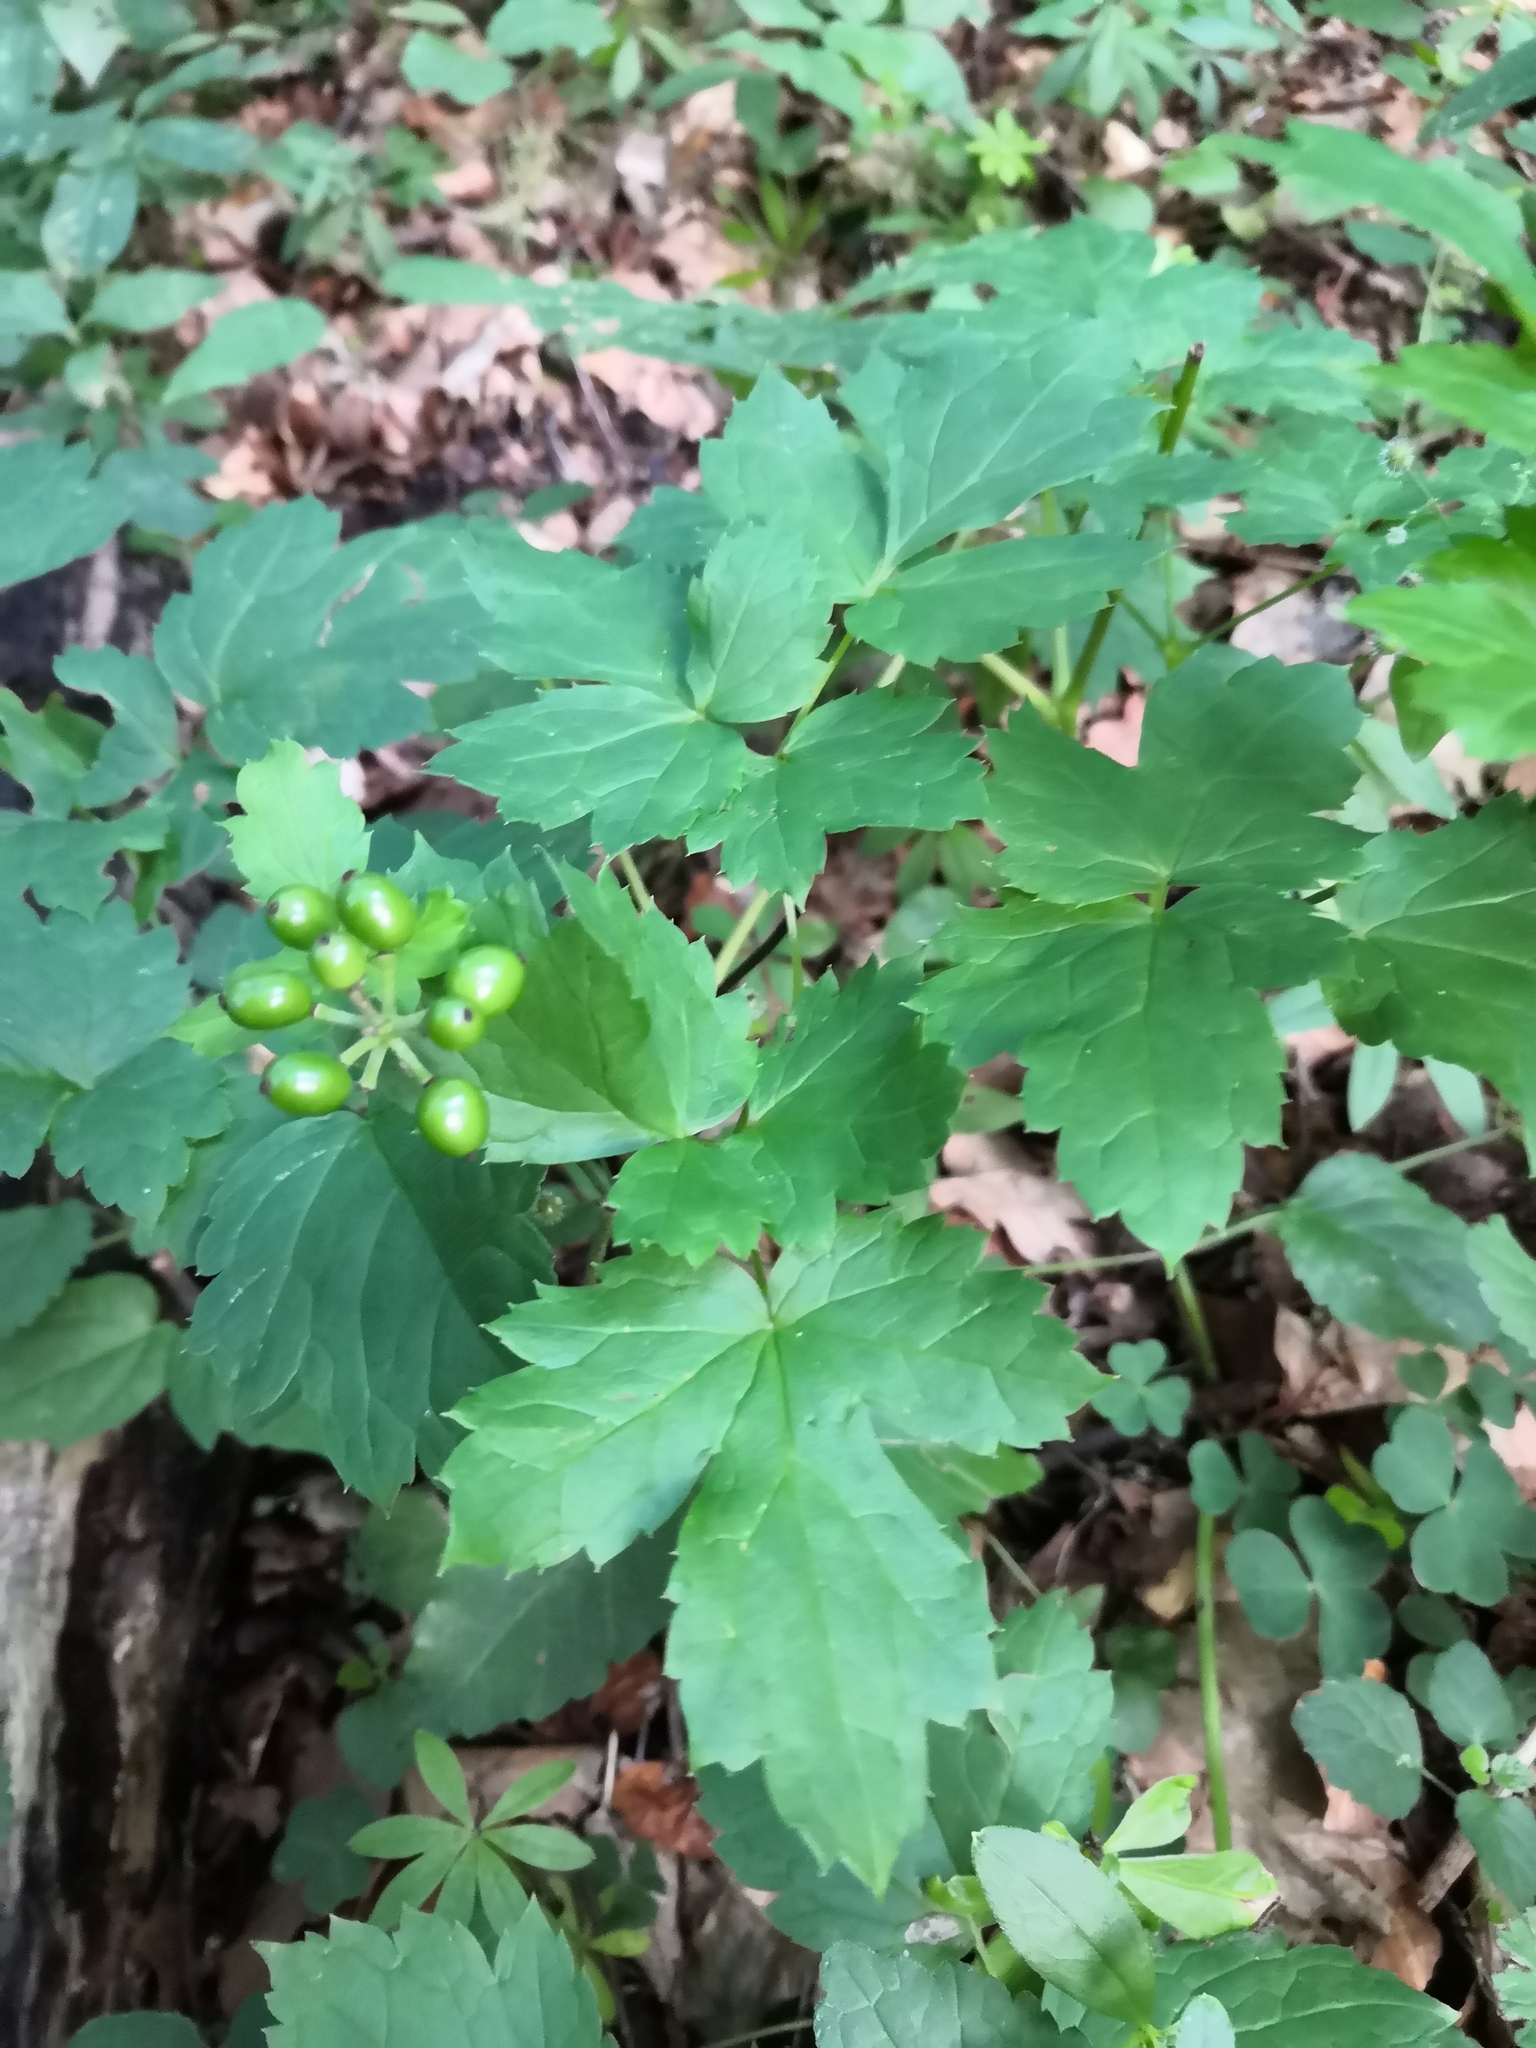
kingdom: Plantae
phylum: Tracheophyta
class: Magnoliopsida
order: Ranunculales
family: Ranunculaceae
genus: Actaea
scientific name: Actaea spicata
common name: Baneberry
